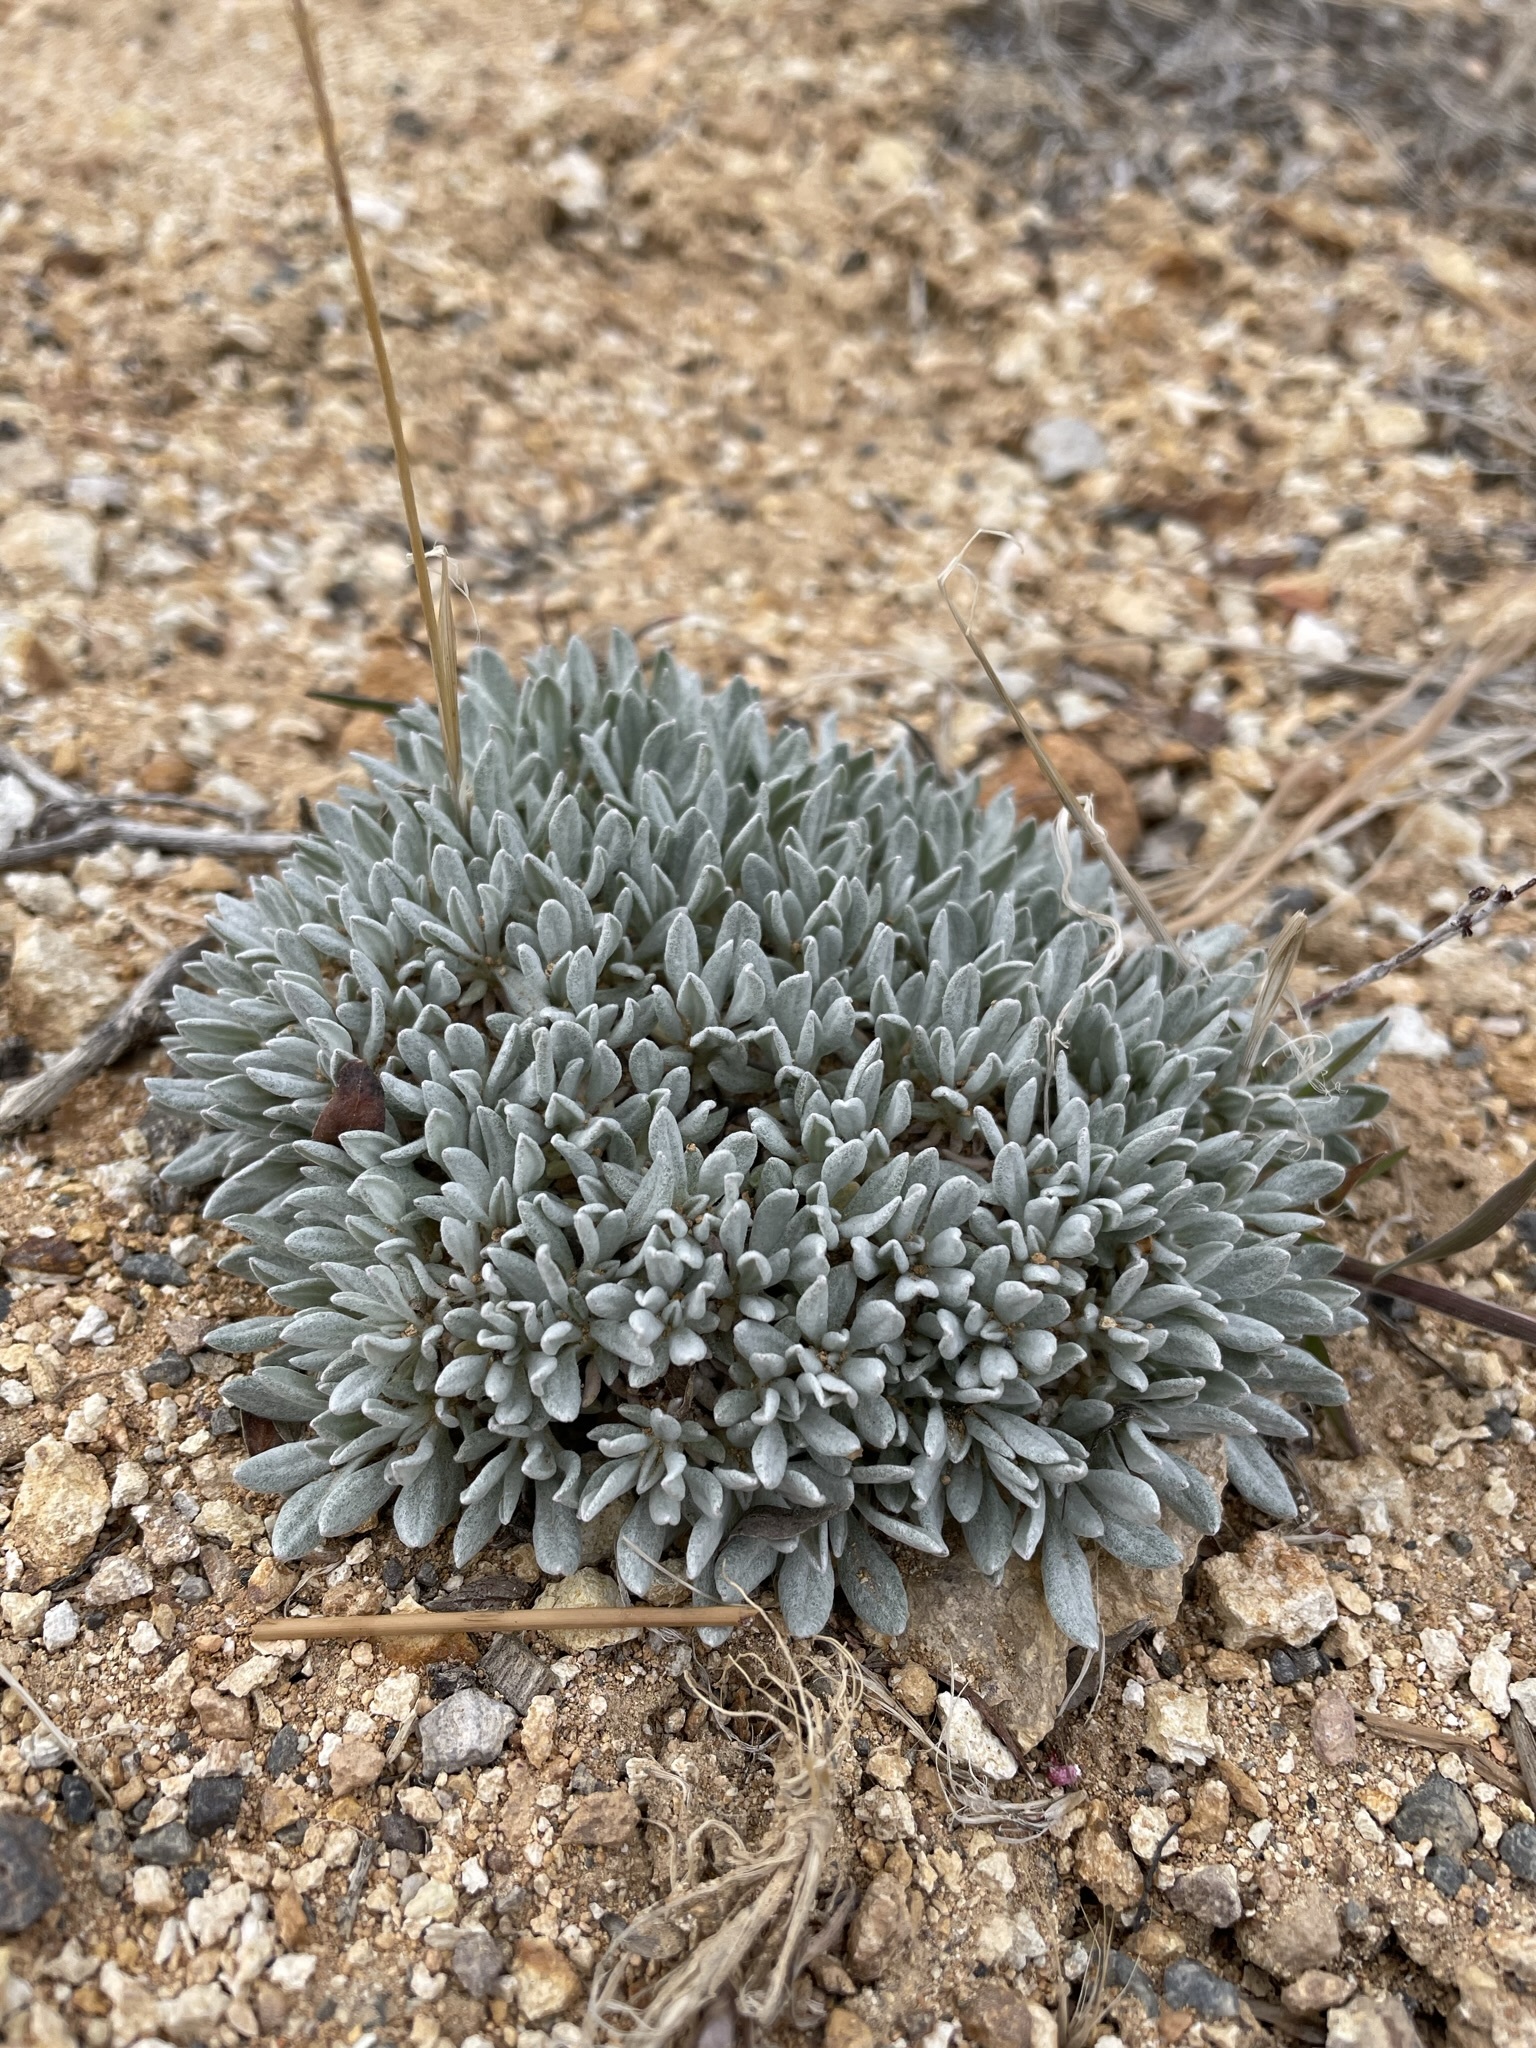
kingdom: Plantae
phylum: Tracheophyta
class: Magnoliopsida
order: Caryophyllales
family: Polygonaceae
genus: Eriogonum
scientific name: Eriogonum ochrocephalum
